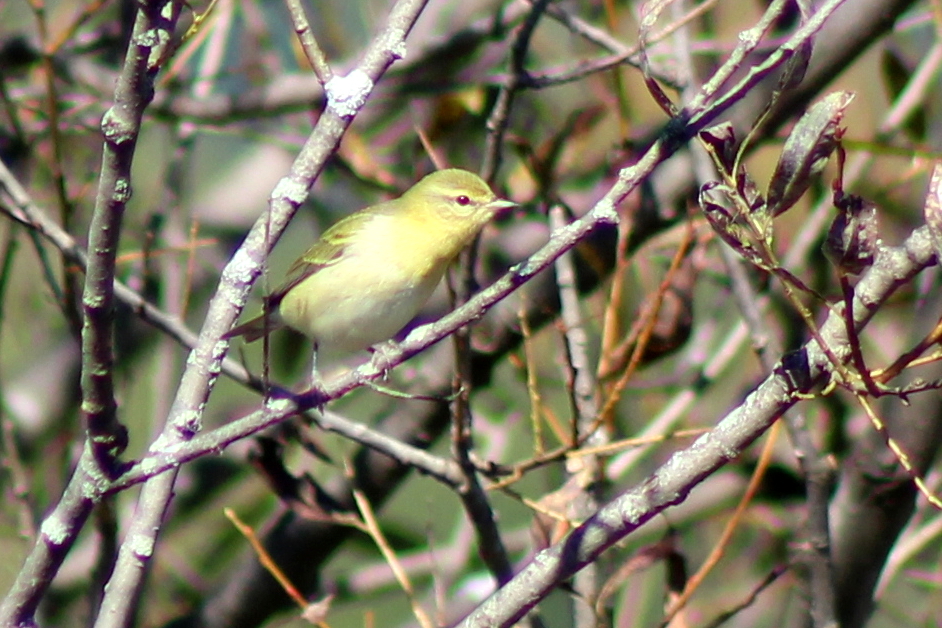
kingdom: Animalia
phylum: Chordata
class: Aves
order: Passeriformes
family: Parulidae
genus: Leiothlypis
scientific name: Leiothlypis peregrina
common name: Tennessee warbler
